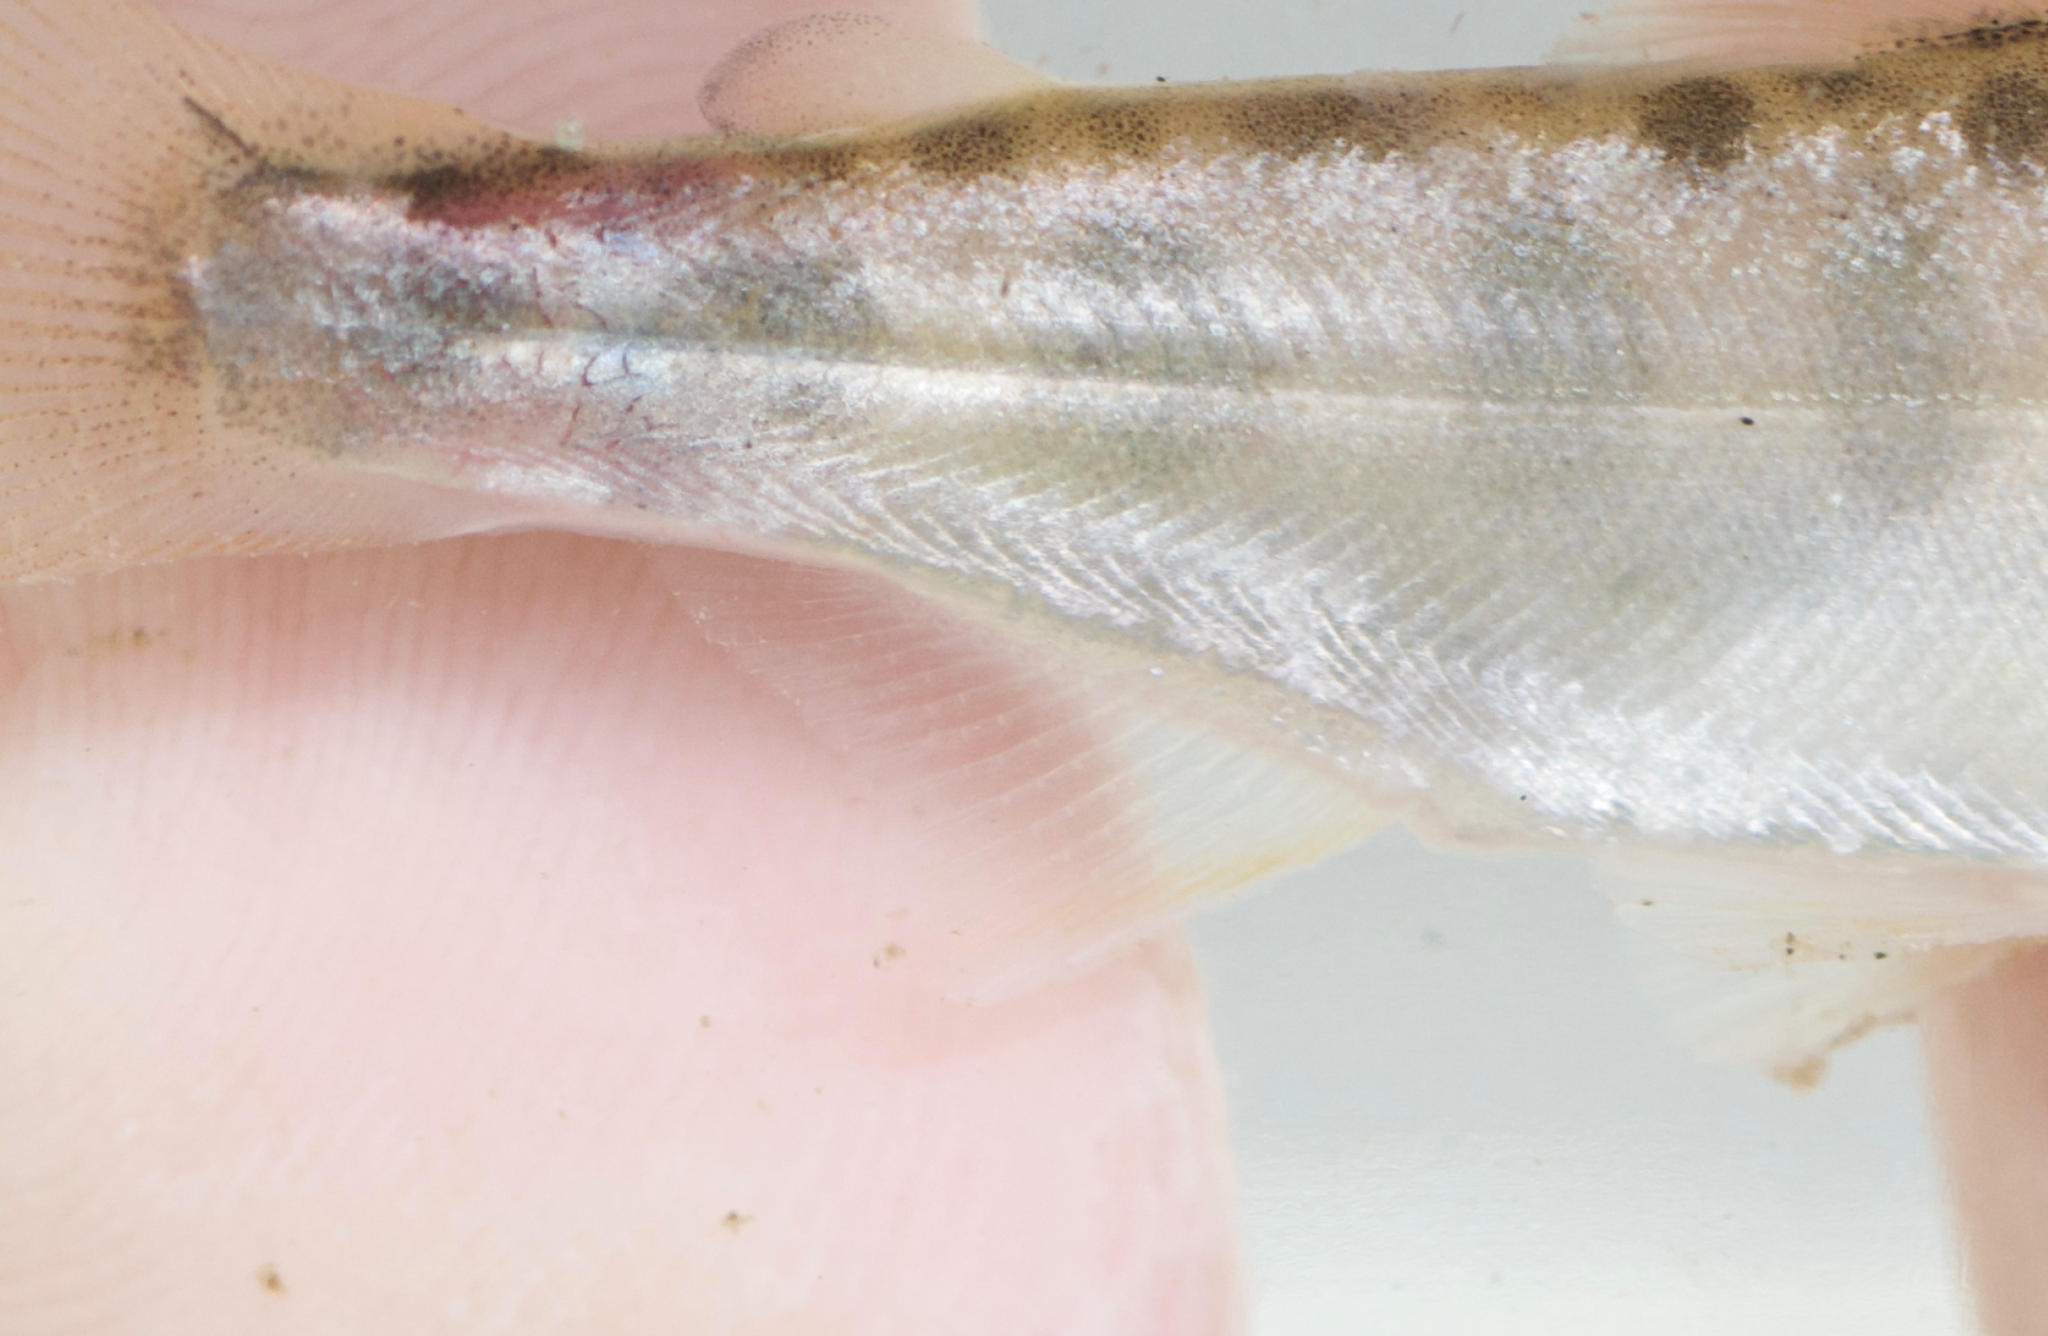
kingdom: Animalia
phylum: Chordata
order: Salmoniformes
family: Salmonidae
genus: Oncorhynchus
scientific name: Oncorhynchus tshawytscha
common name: Chinook salmon
